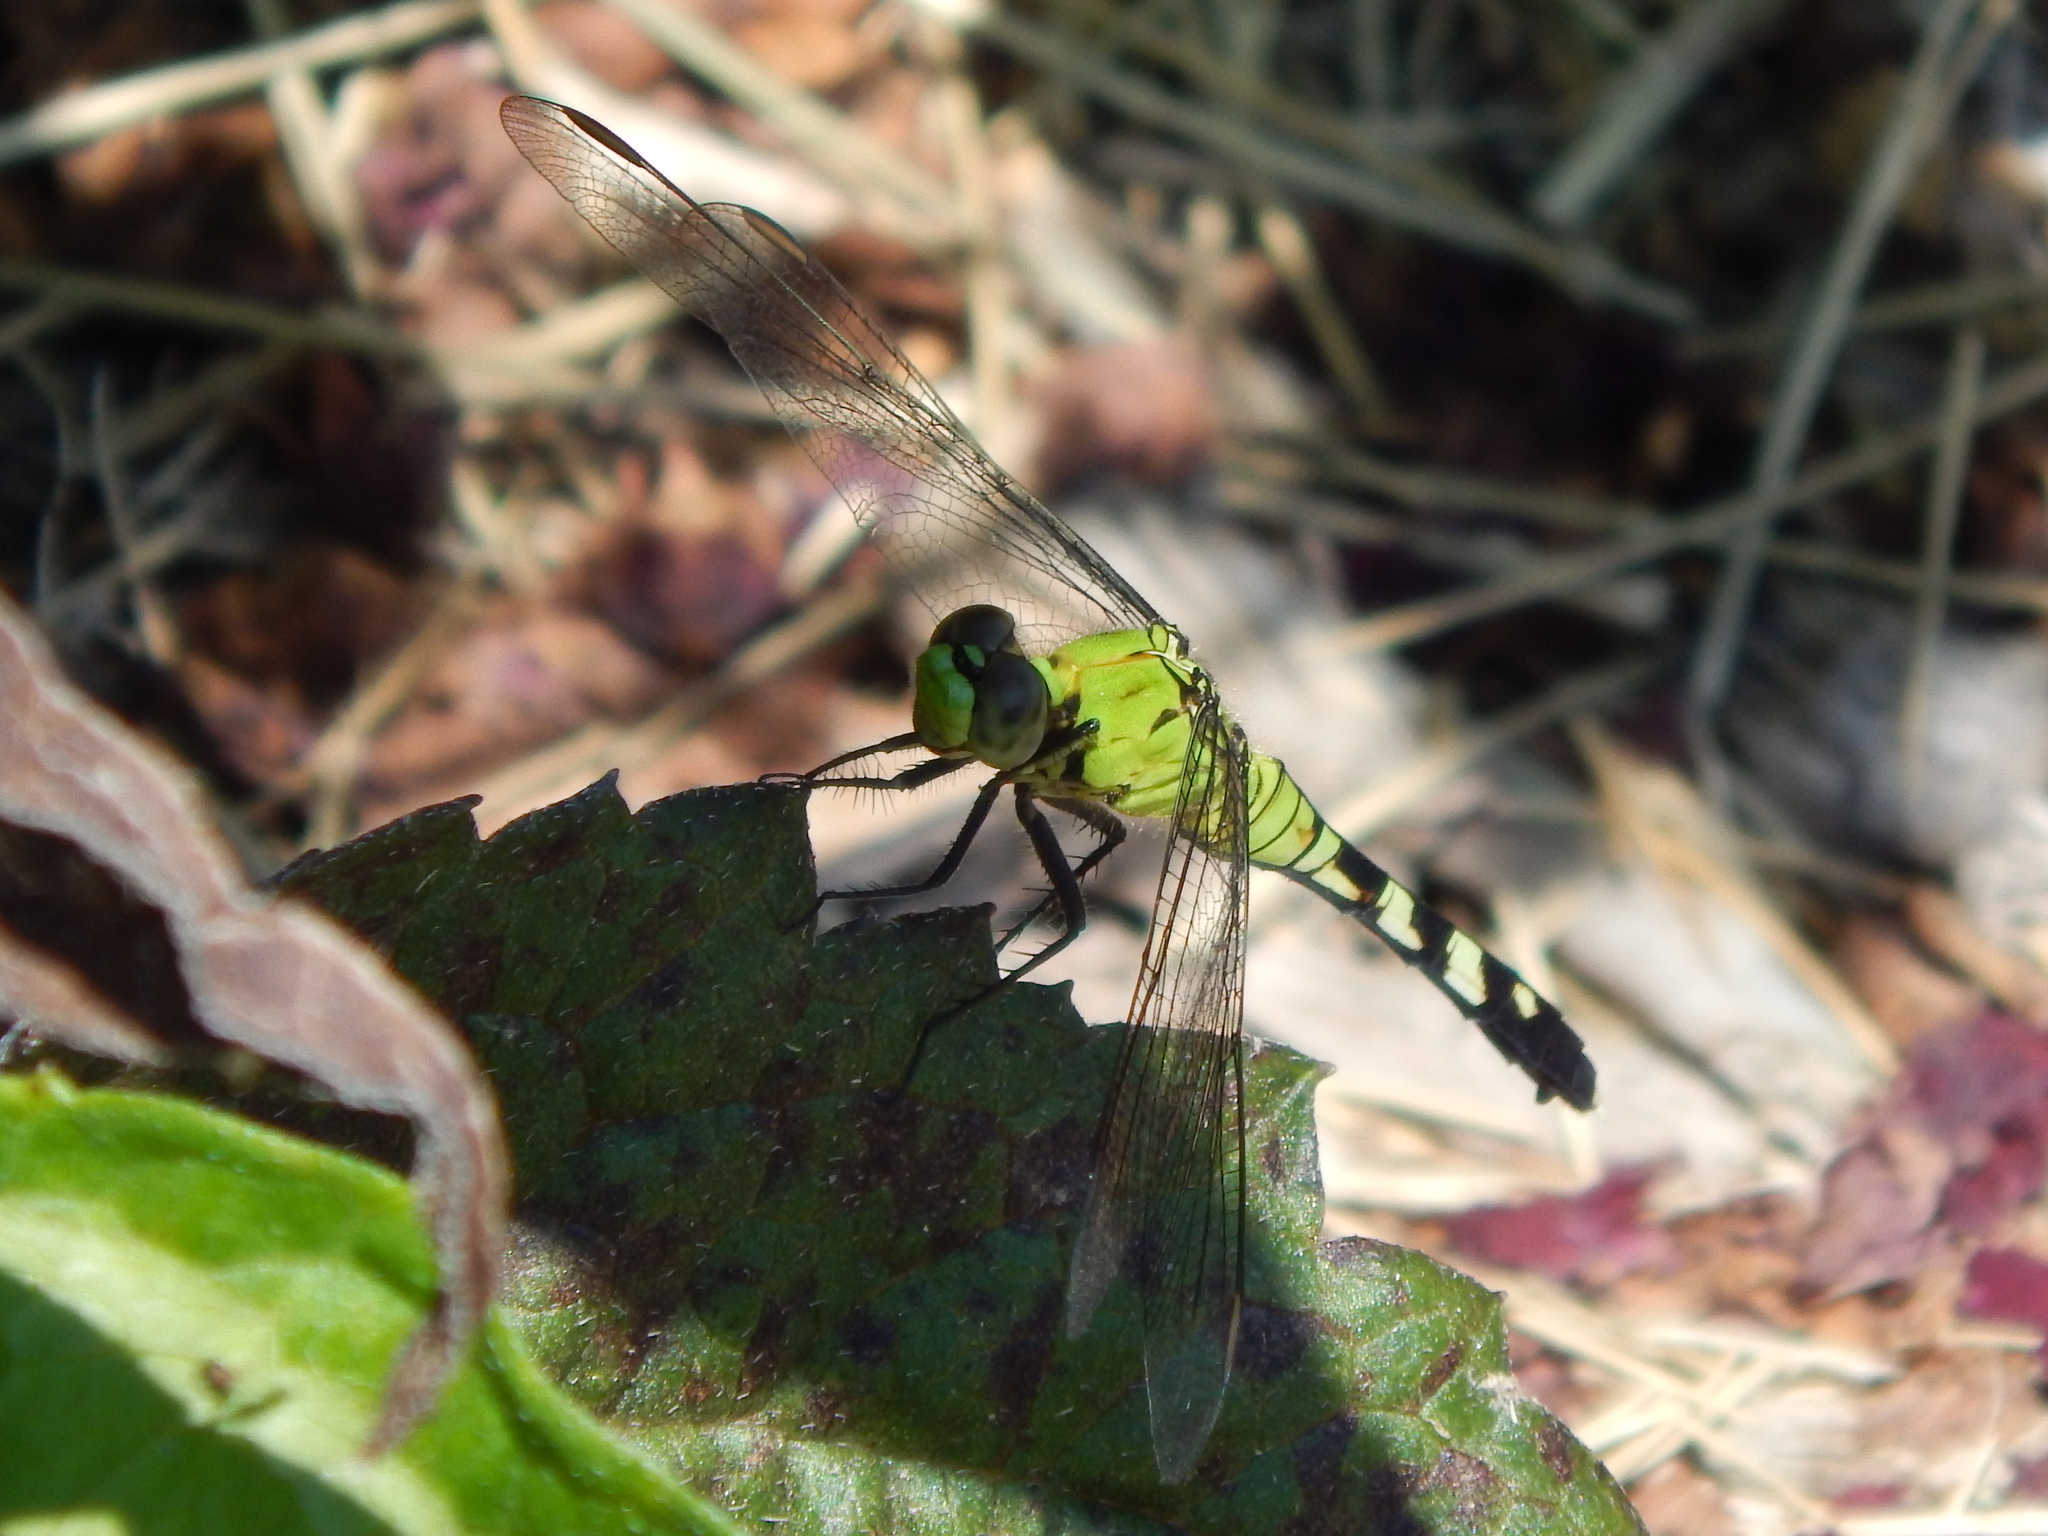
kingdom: Animalia
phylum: Arthropoda
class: Insecta
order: Odonata
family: Libellulidae
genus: Erythemis
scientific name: Erythemis simplicicollis
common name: Eastern pondhawk
